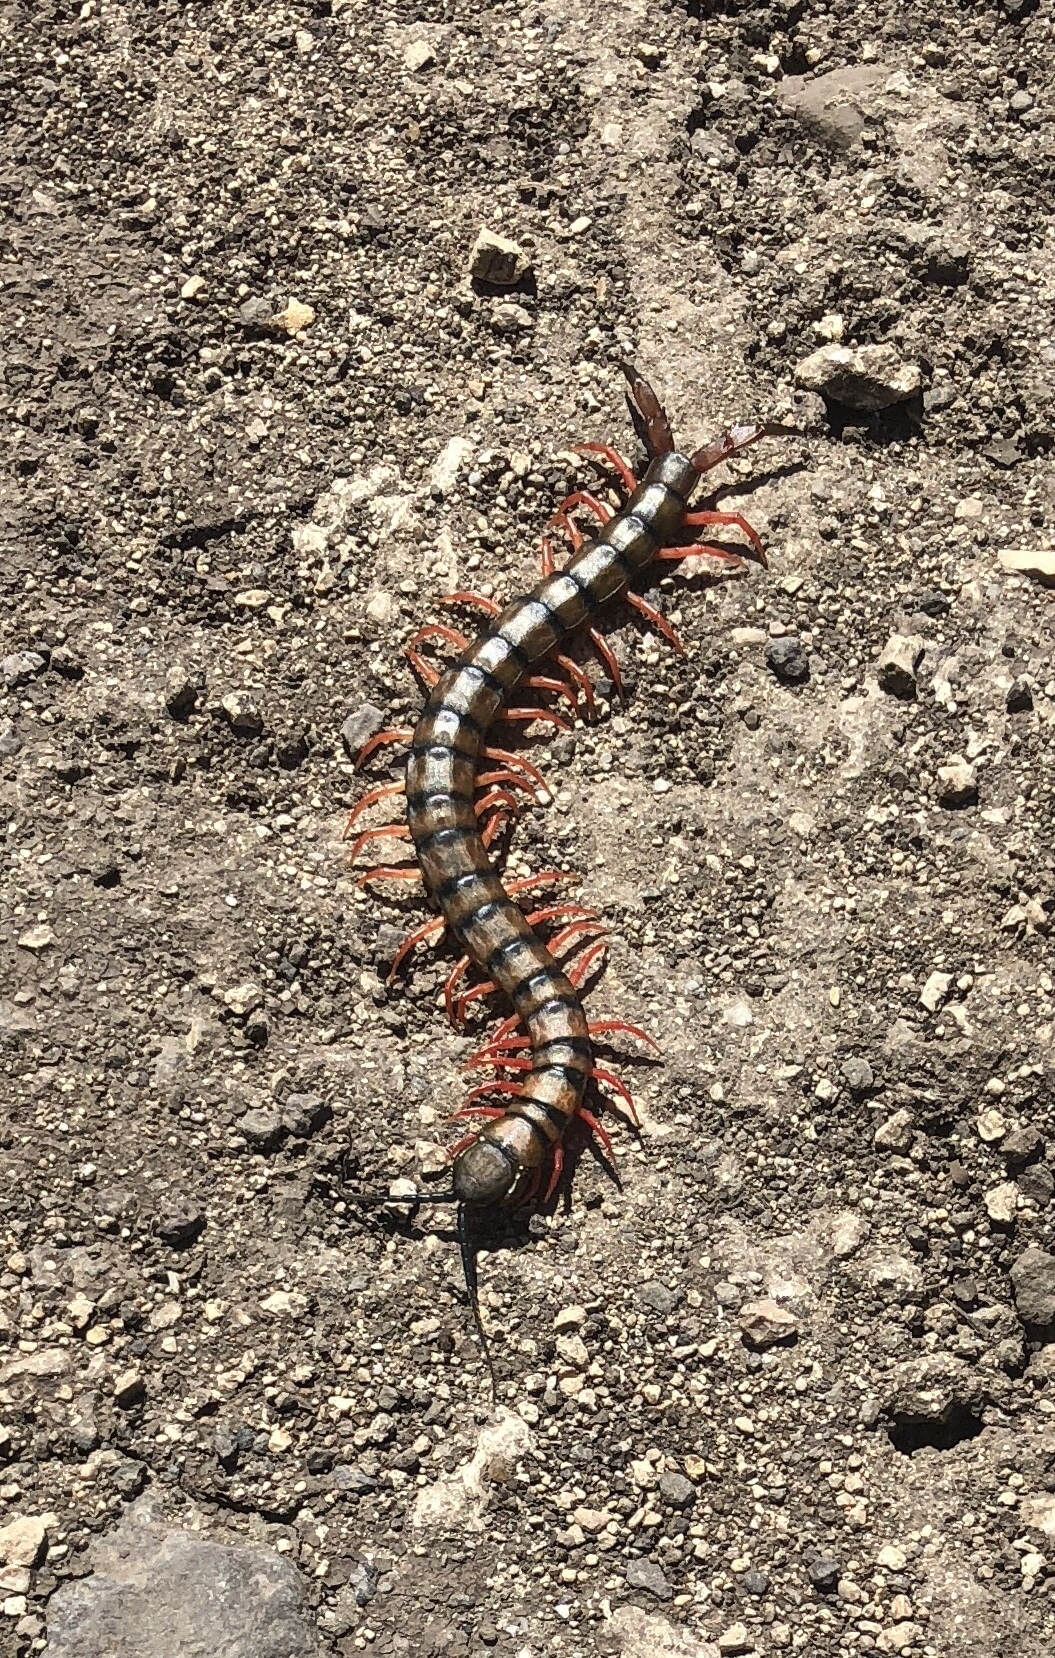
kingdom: Animalia
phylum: Arthropoda
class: Chilopoda
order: Scolopendromorpha
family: Scolopendridae
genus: Scolopendra
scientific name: Scolopendra morsitans
